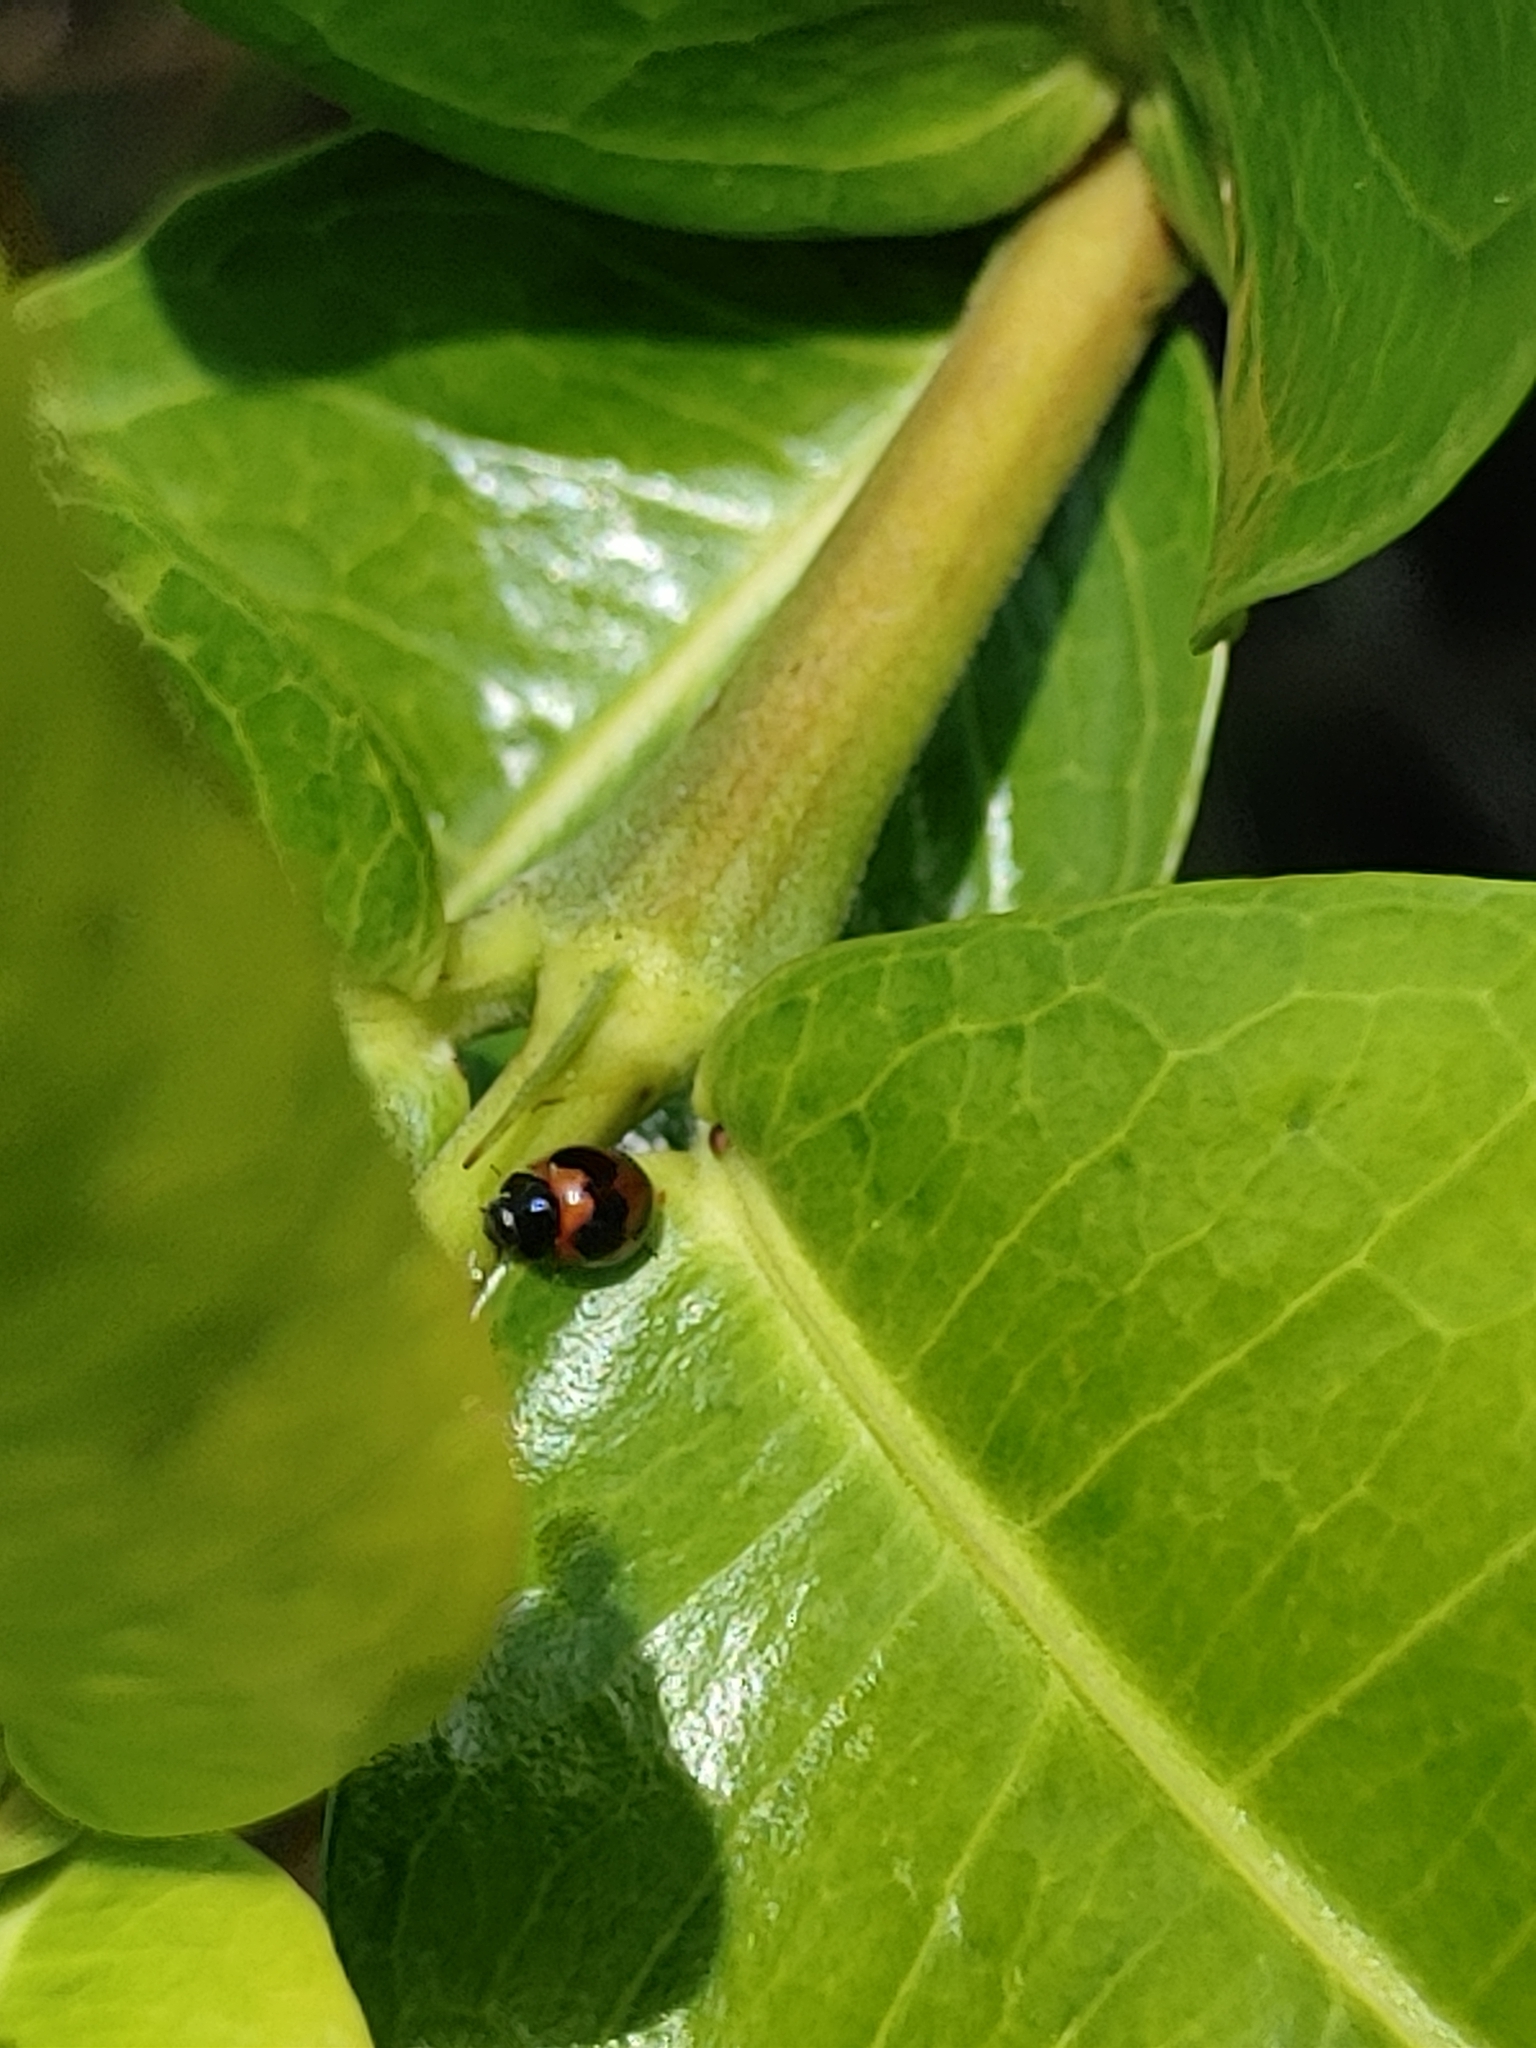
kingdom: Animalia
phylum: Arthropoda
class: Insecta
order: Coleoptera
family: Coccinellidae
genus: Exochomus
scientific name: Exochomus childreni
